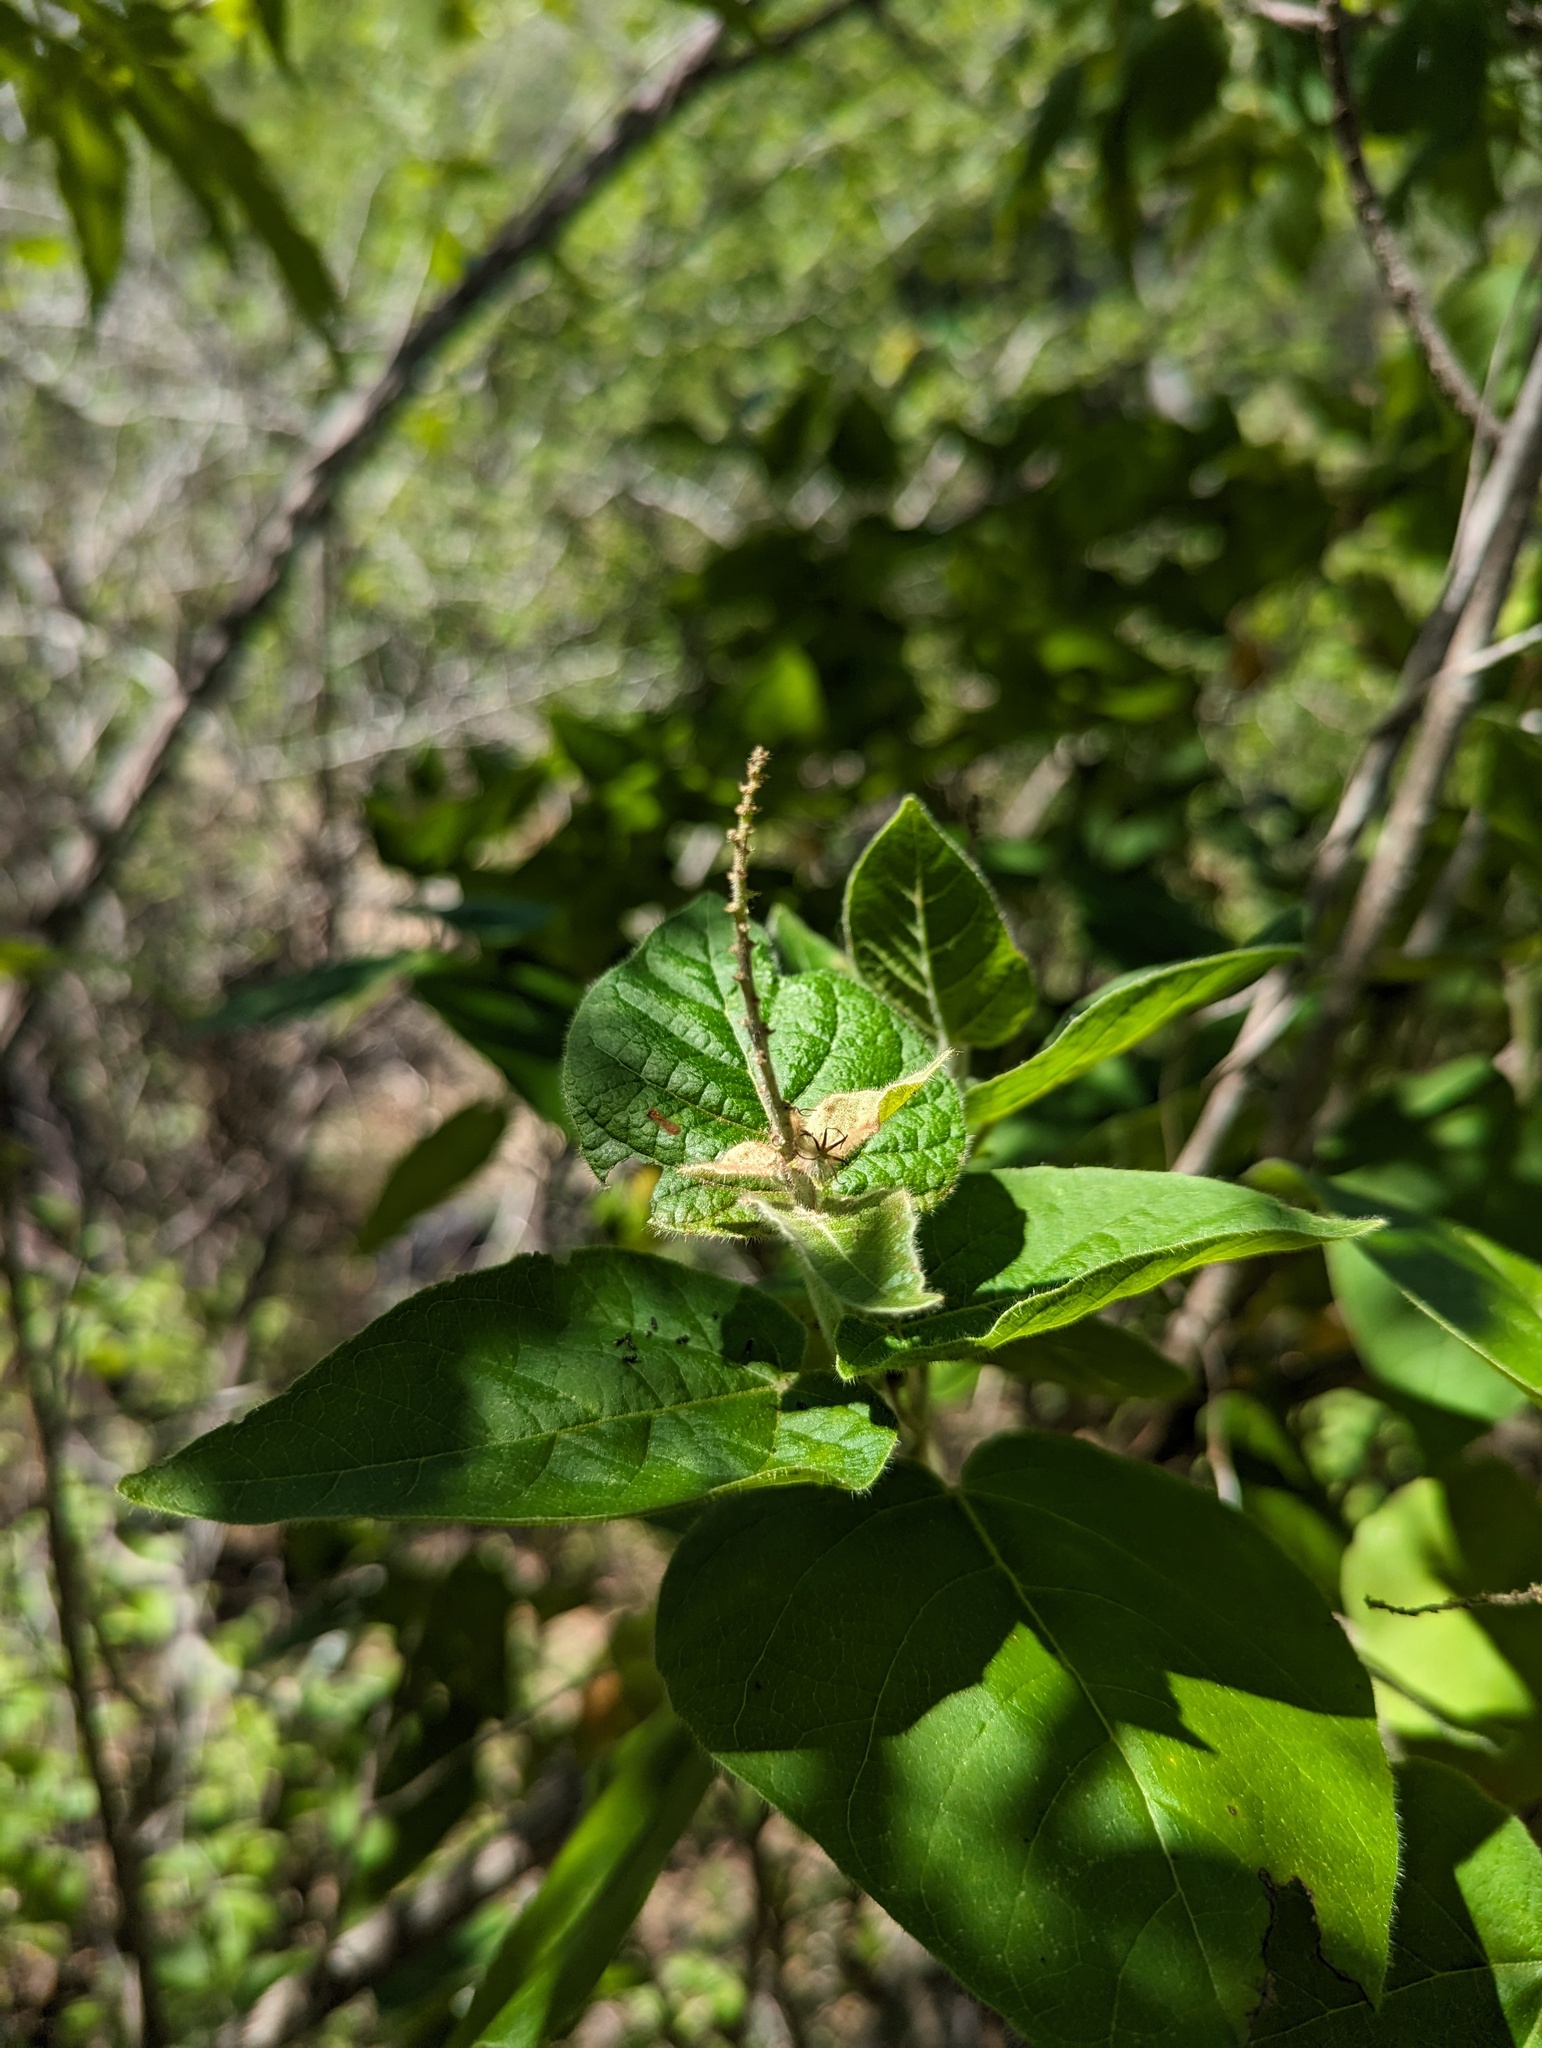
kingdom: Plantae
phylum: Tracheophyta
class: Magnoliopsida
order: Malpighiales
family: Euphorbiaceae
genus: Croton
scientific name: Croton magdalenae
